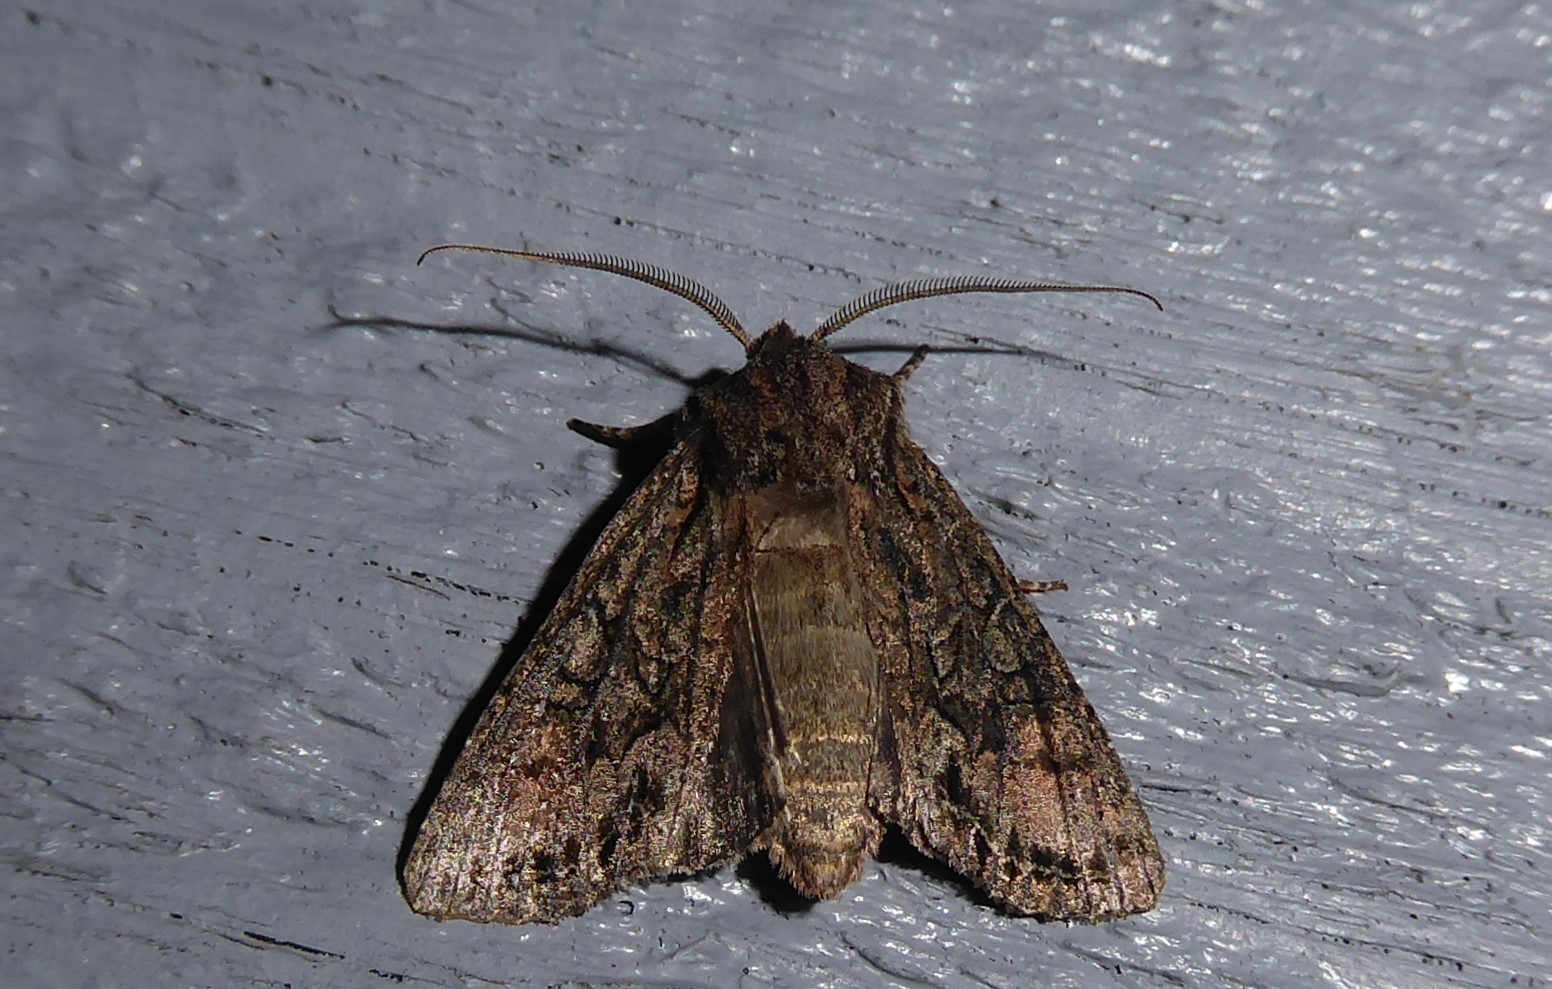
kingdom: Animalia
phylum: Arthropoda
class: Insecta
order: Lepidoptera
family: Noctuidae
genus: Ichneutica
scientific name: Ichneutica mutans
